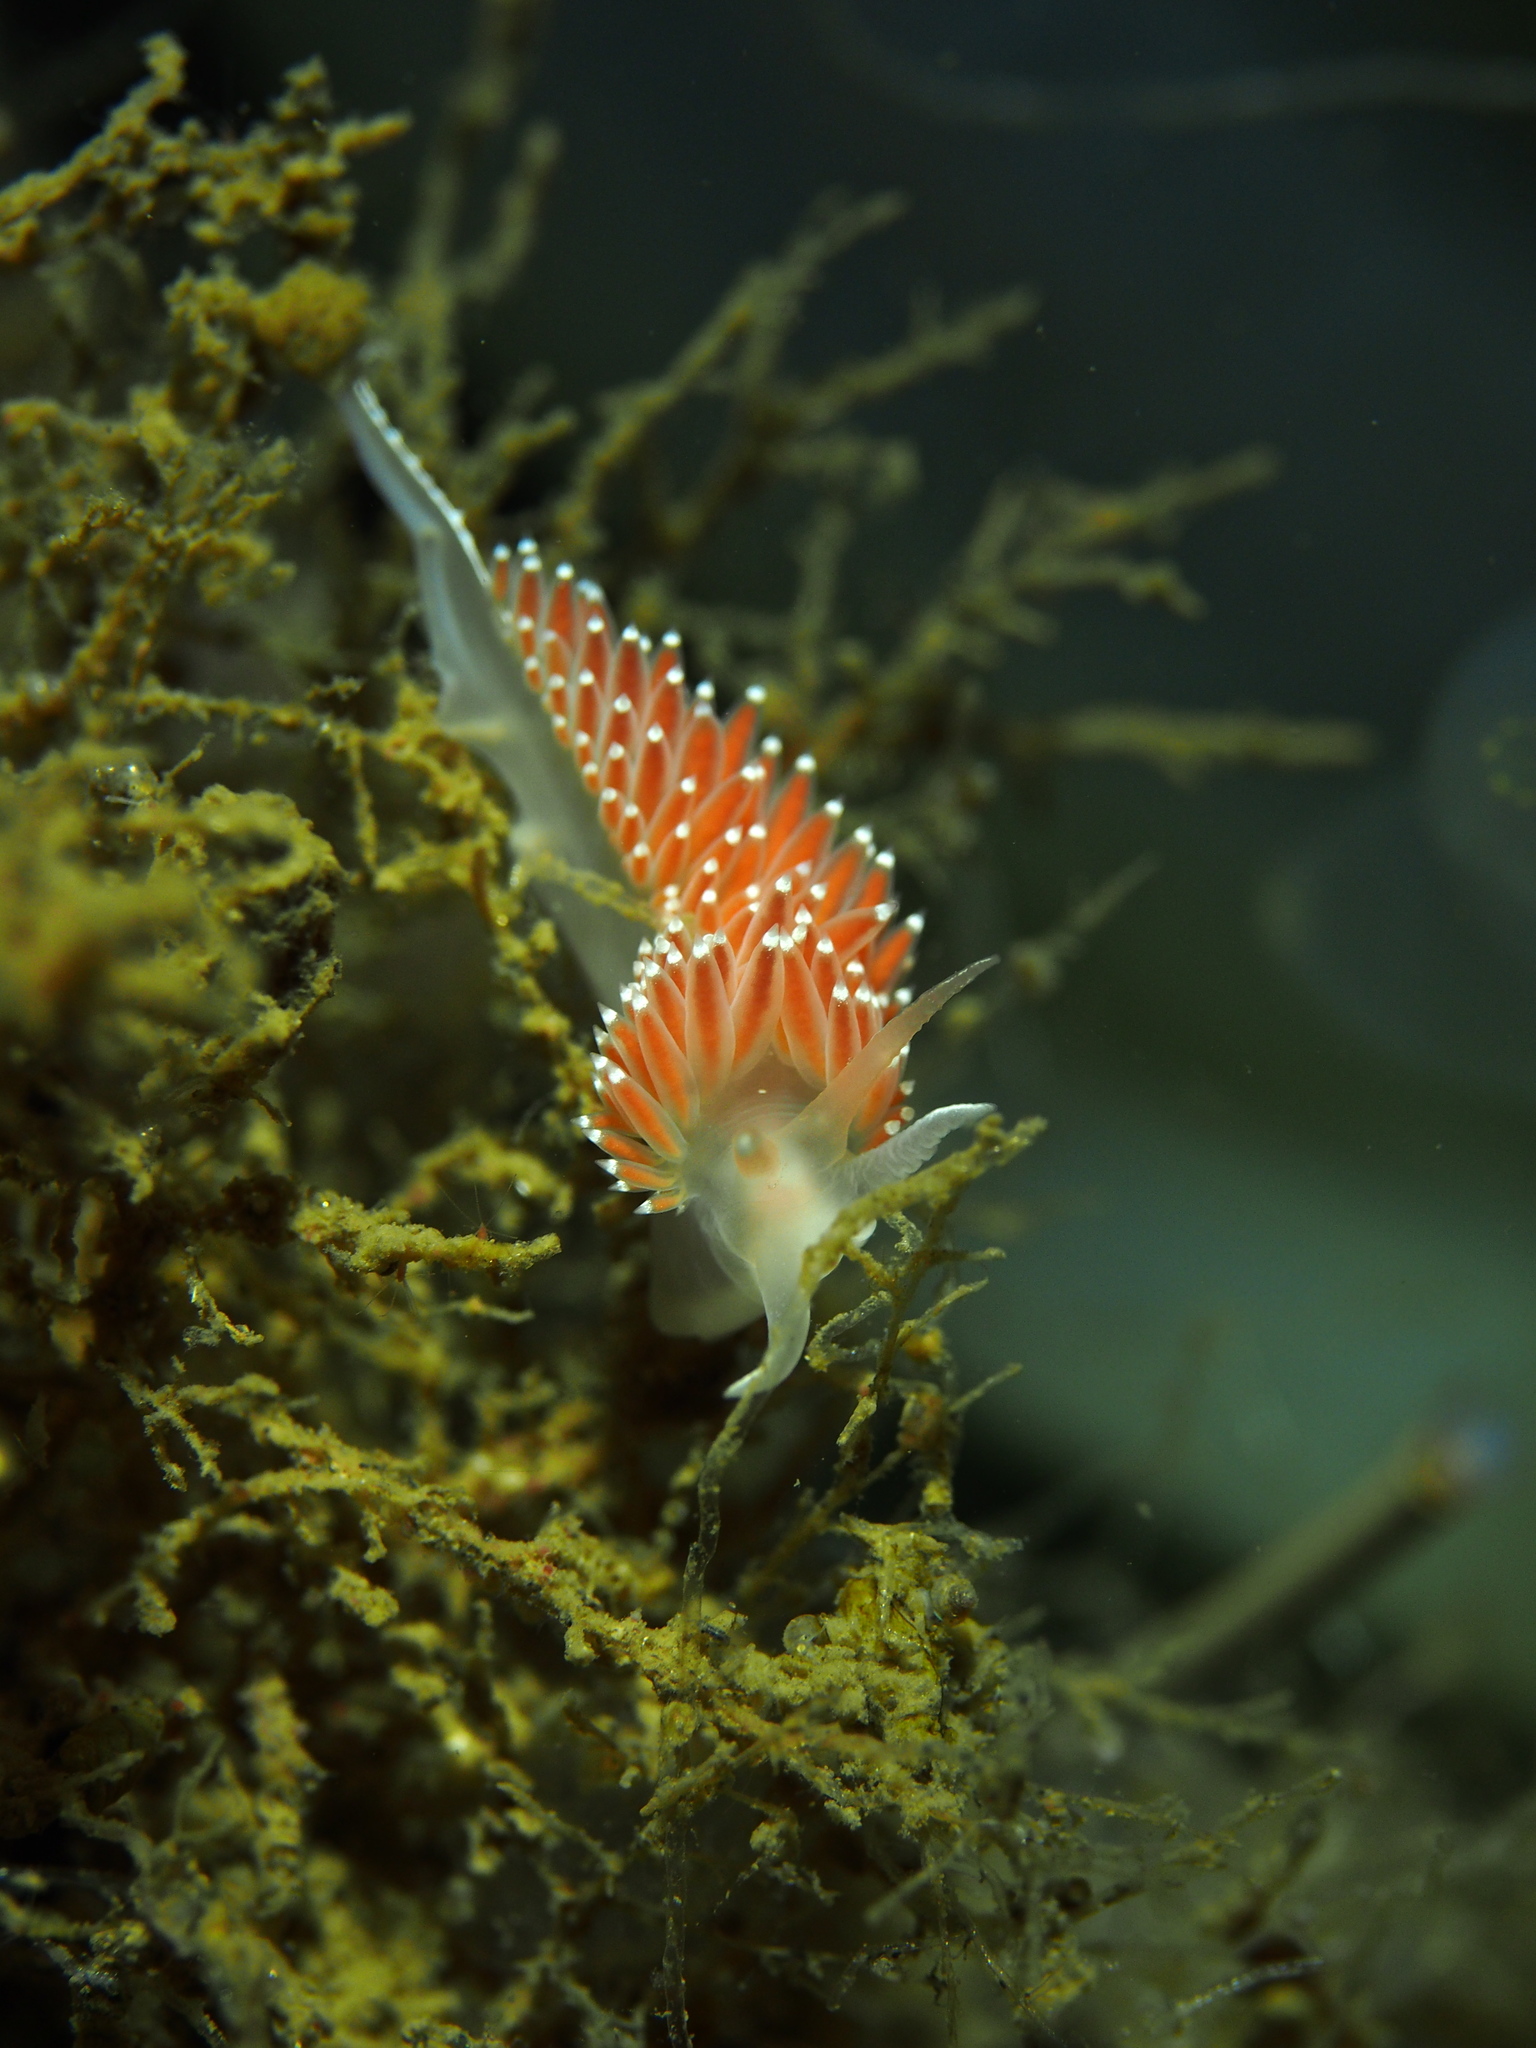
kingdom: Animalia
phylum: Mollusca
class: Gastropoda
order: Nudibranchia
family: Coryphellidae
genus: Coryphella
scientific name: Coryphella verrucosa
